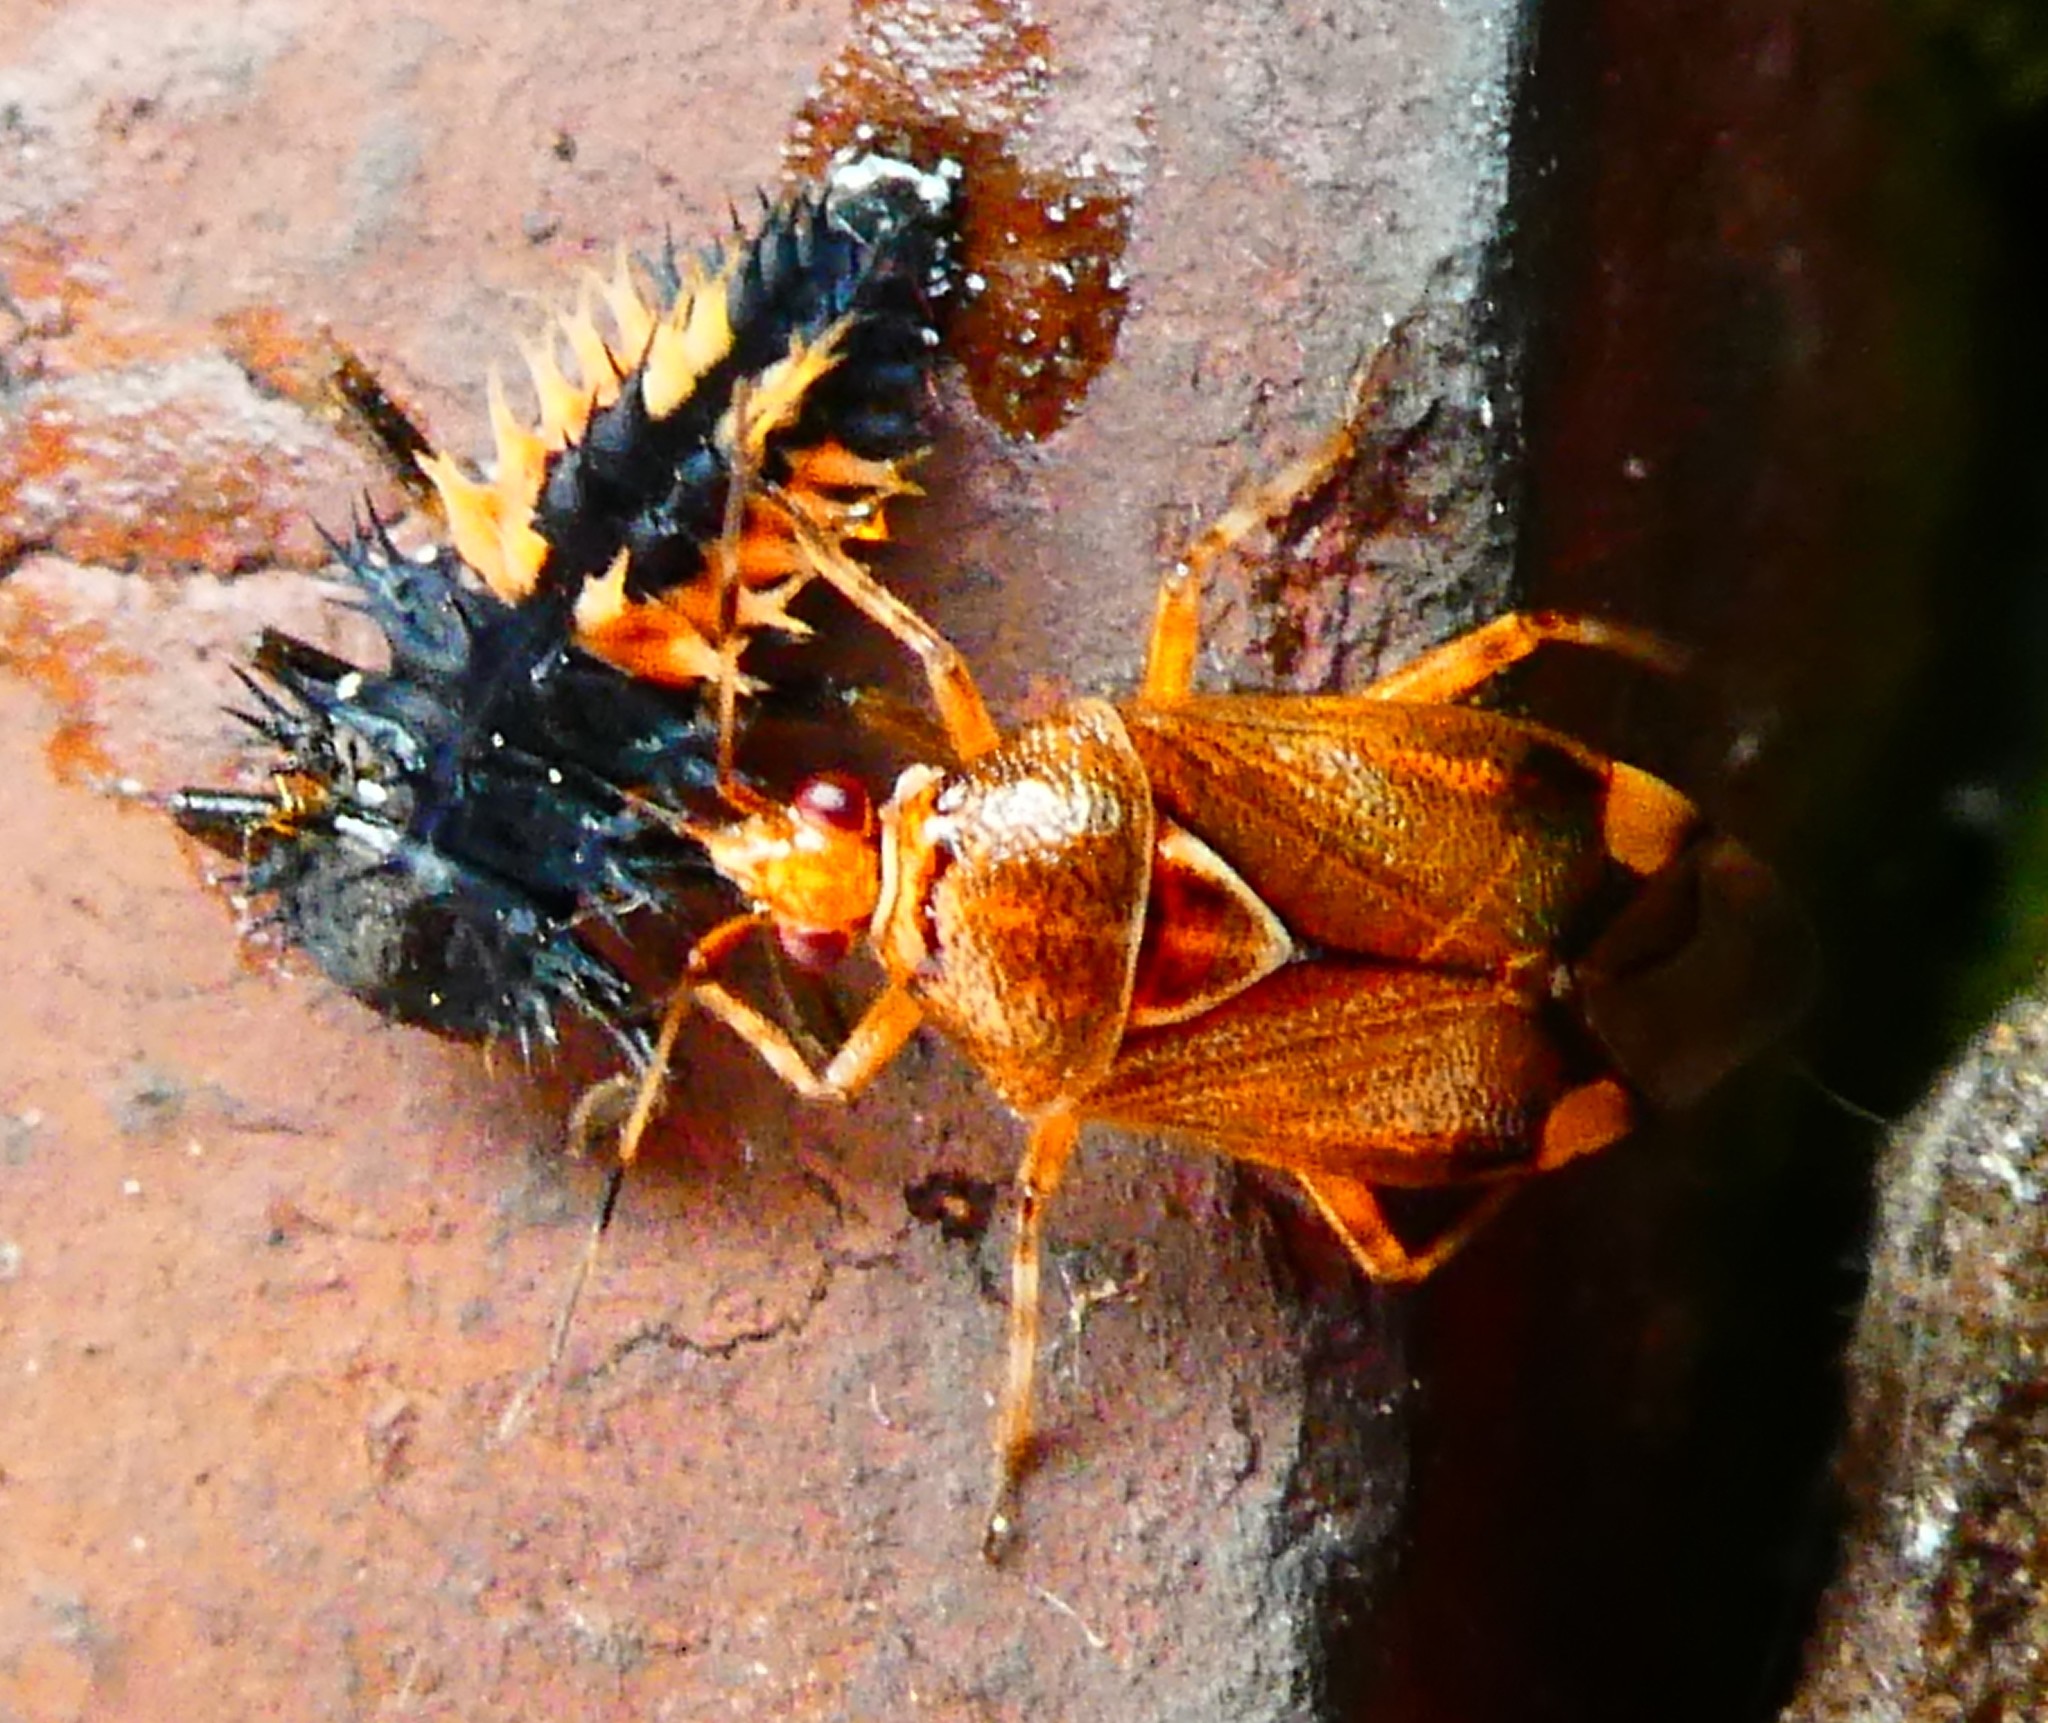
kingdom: Animalia
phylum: Arthropoda
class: Insecta
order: Coleoptera
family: Coccinellidae
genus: Harmonia
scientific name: Harmonia axyridis
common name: Harlequin ladybird
